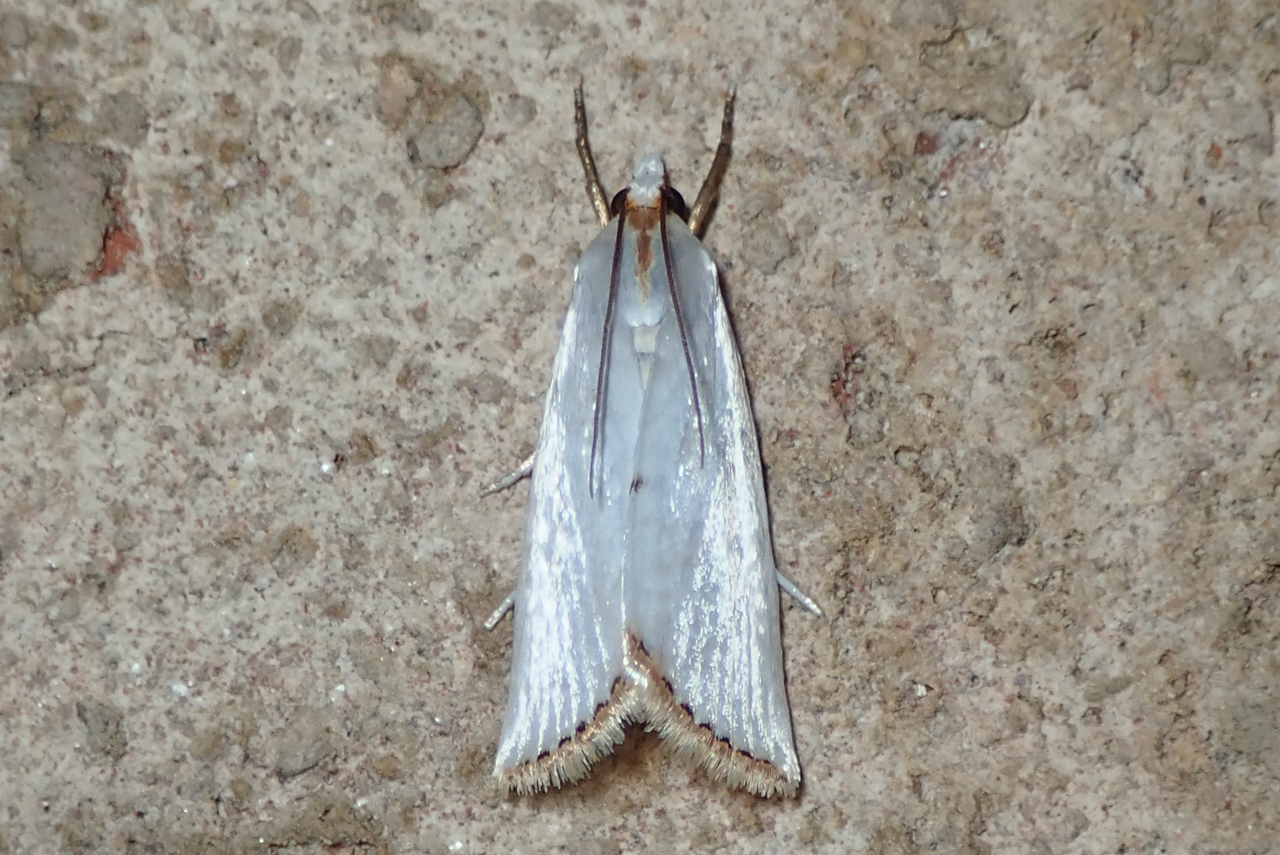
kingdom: Animalia
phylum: Arthropoda
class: Insecta
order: Lepidoptera
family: Crambidae
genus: Argyria
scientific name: Argyria nivalis
